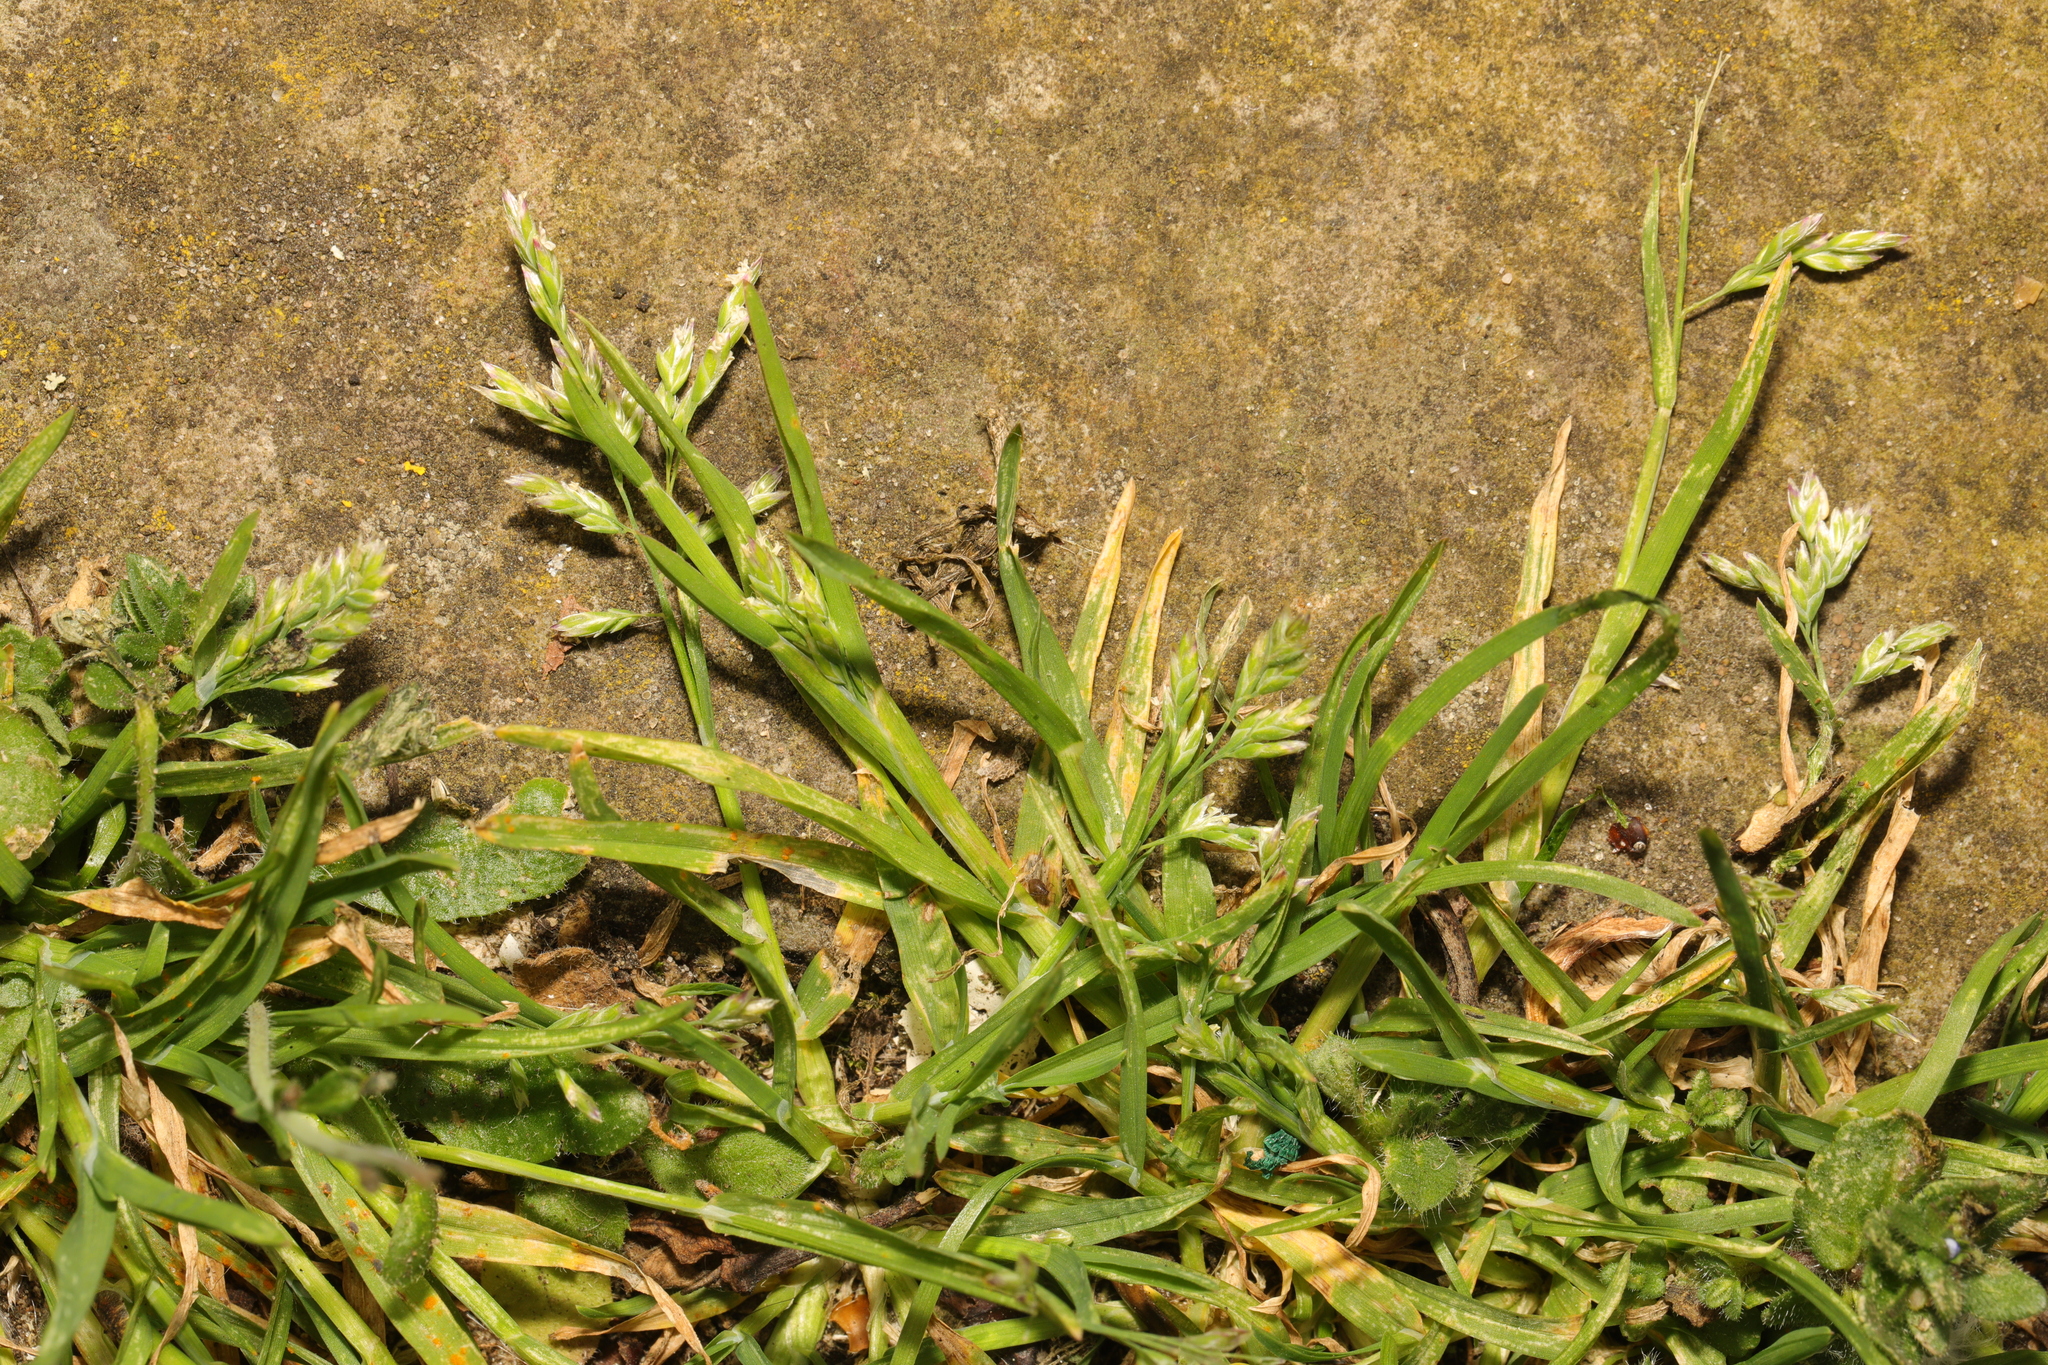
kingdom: Plantae
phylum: Tracheophyta
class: Liliopsida
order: Poales
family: Poaceae
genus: Poa
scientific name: Poa annua
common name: Annual bluegrass
